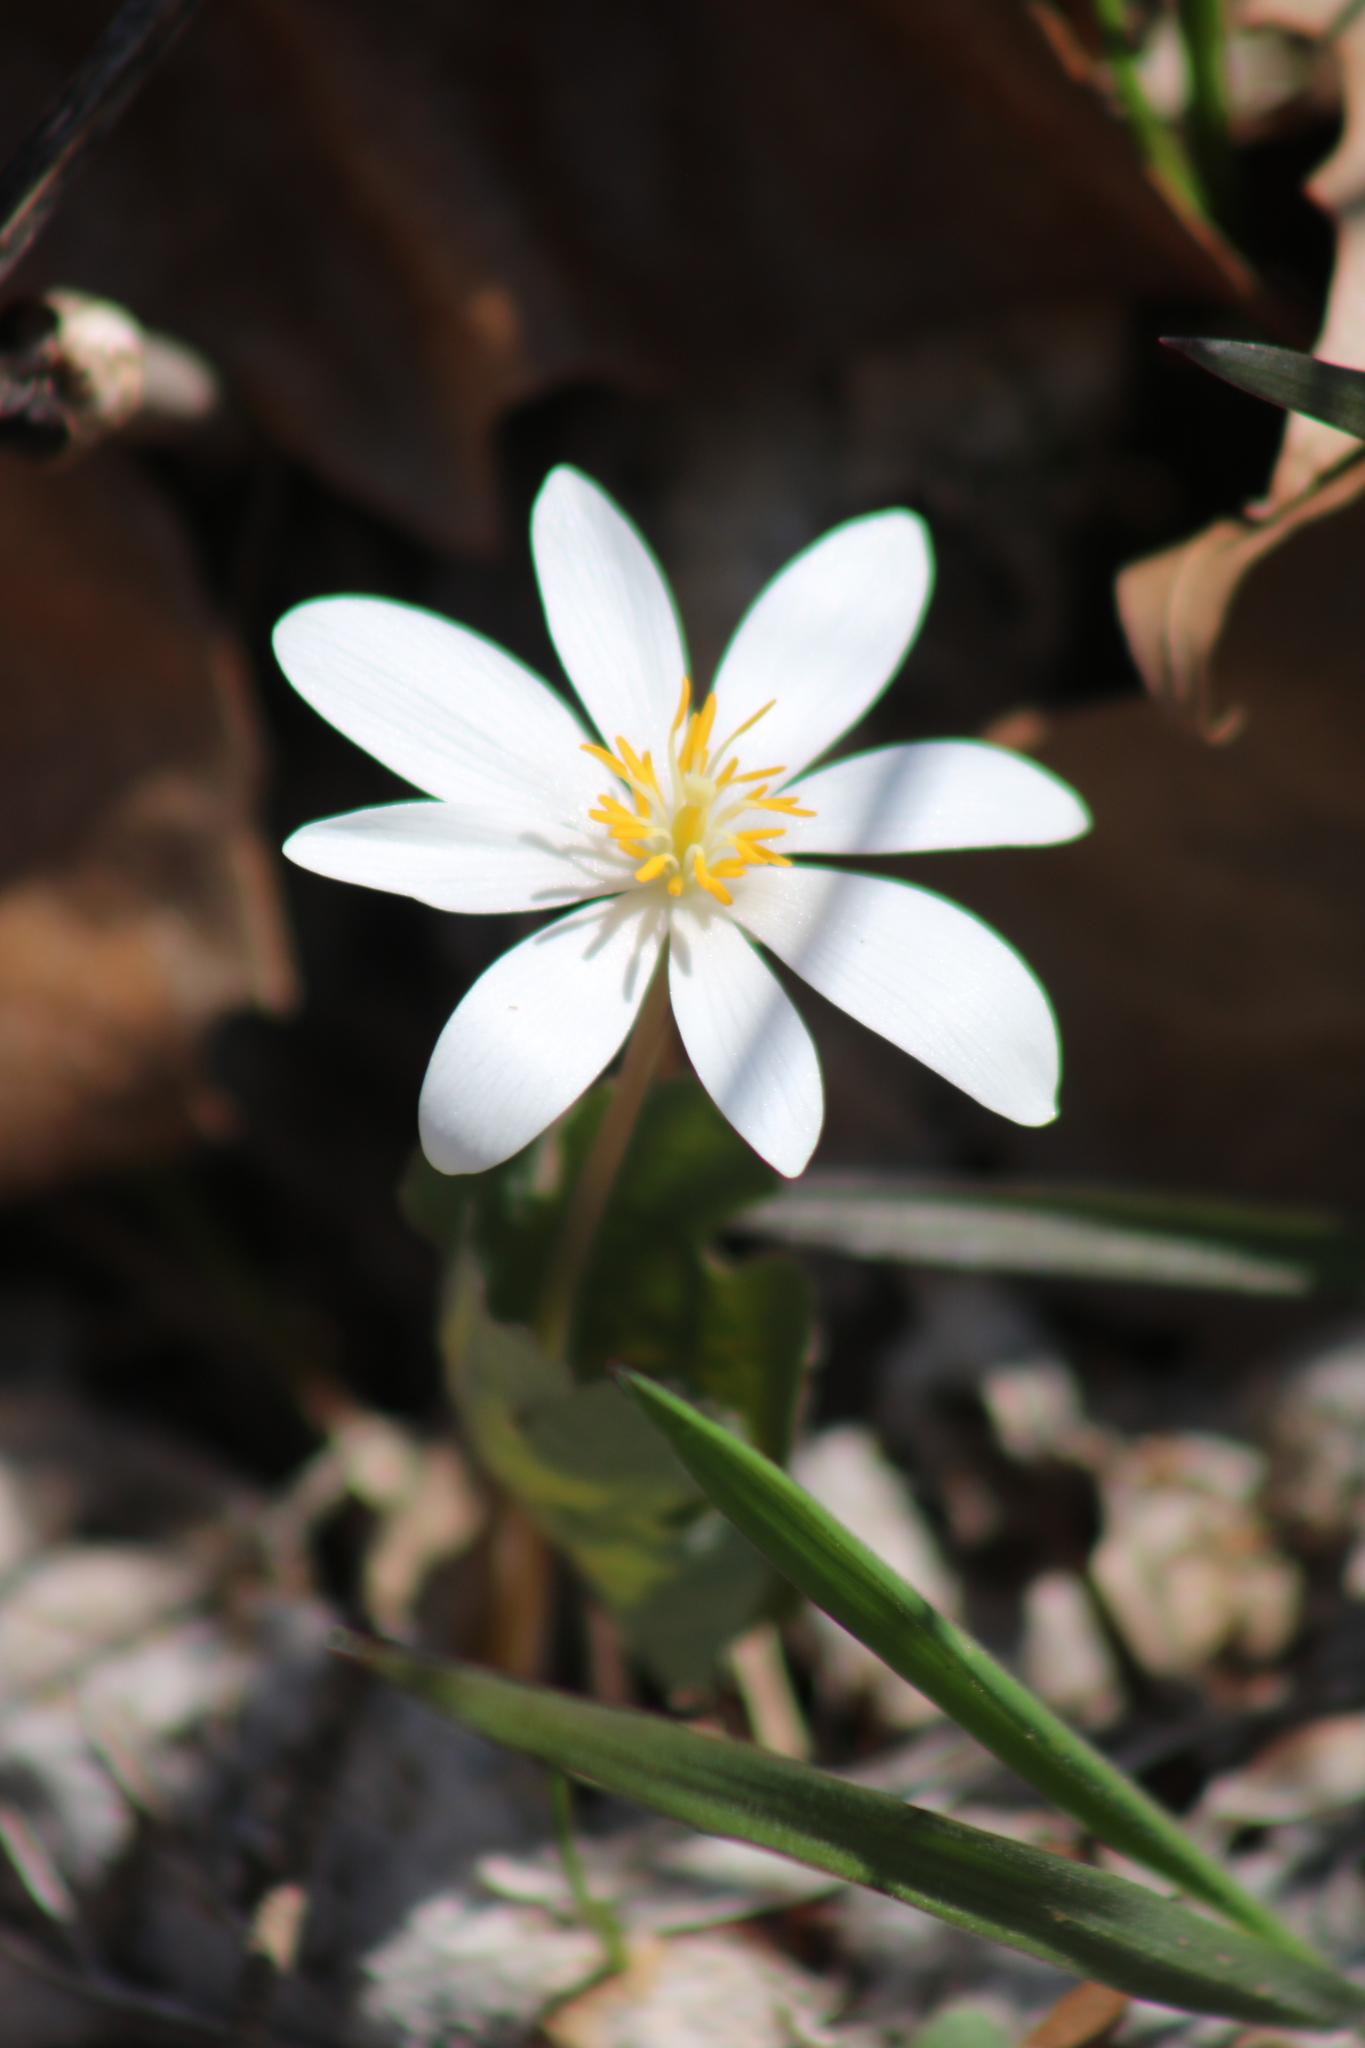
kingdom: Plantae
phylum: Tracheophyta
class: Magnoliopsida
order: Ranunculales
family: Papaveraceae
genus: Sanguinaria
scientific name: Sanguinaria canadensis
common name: Bloodroot
